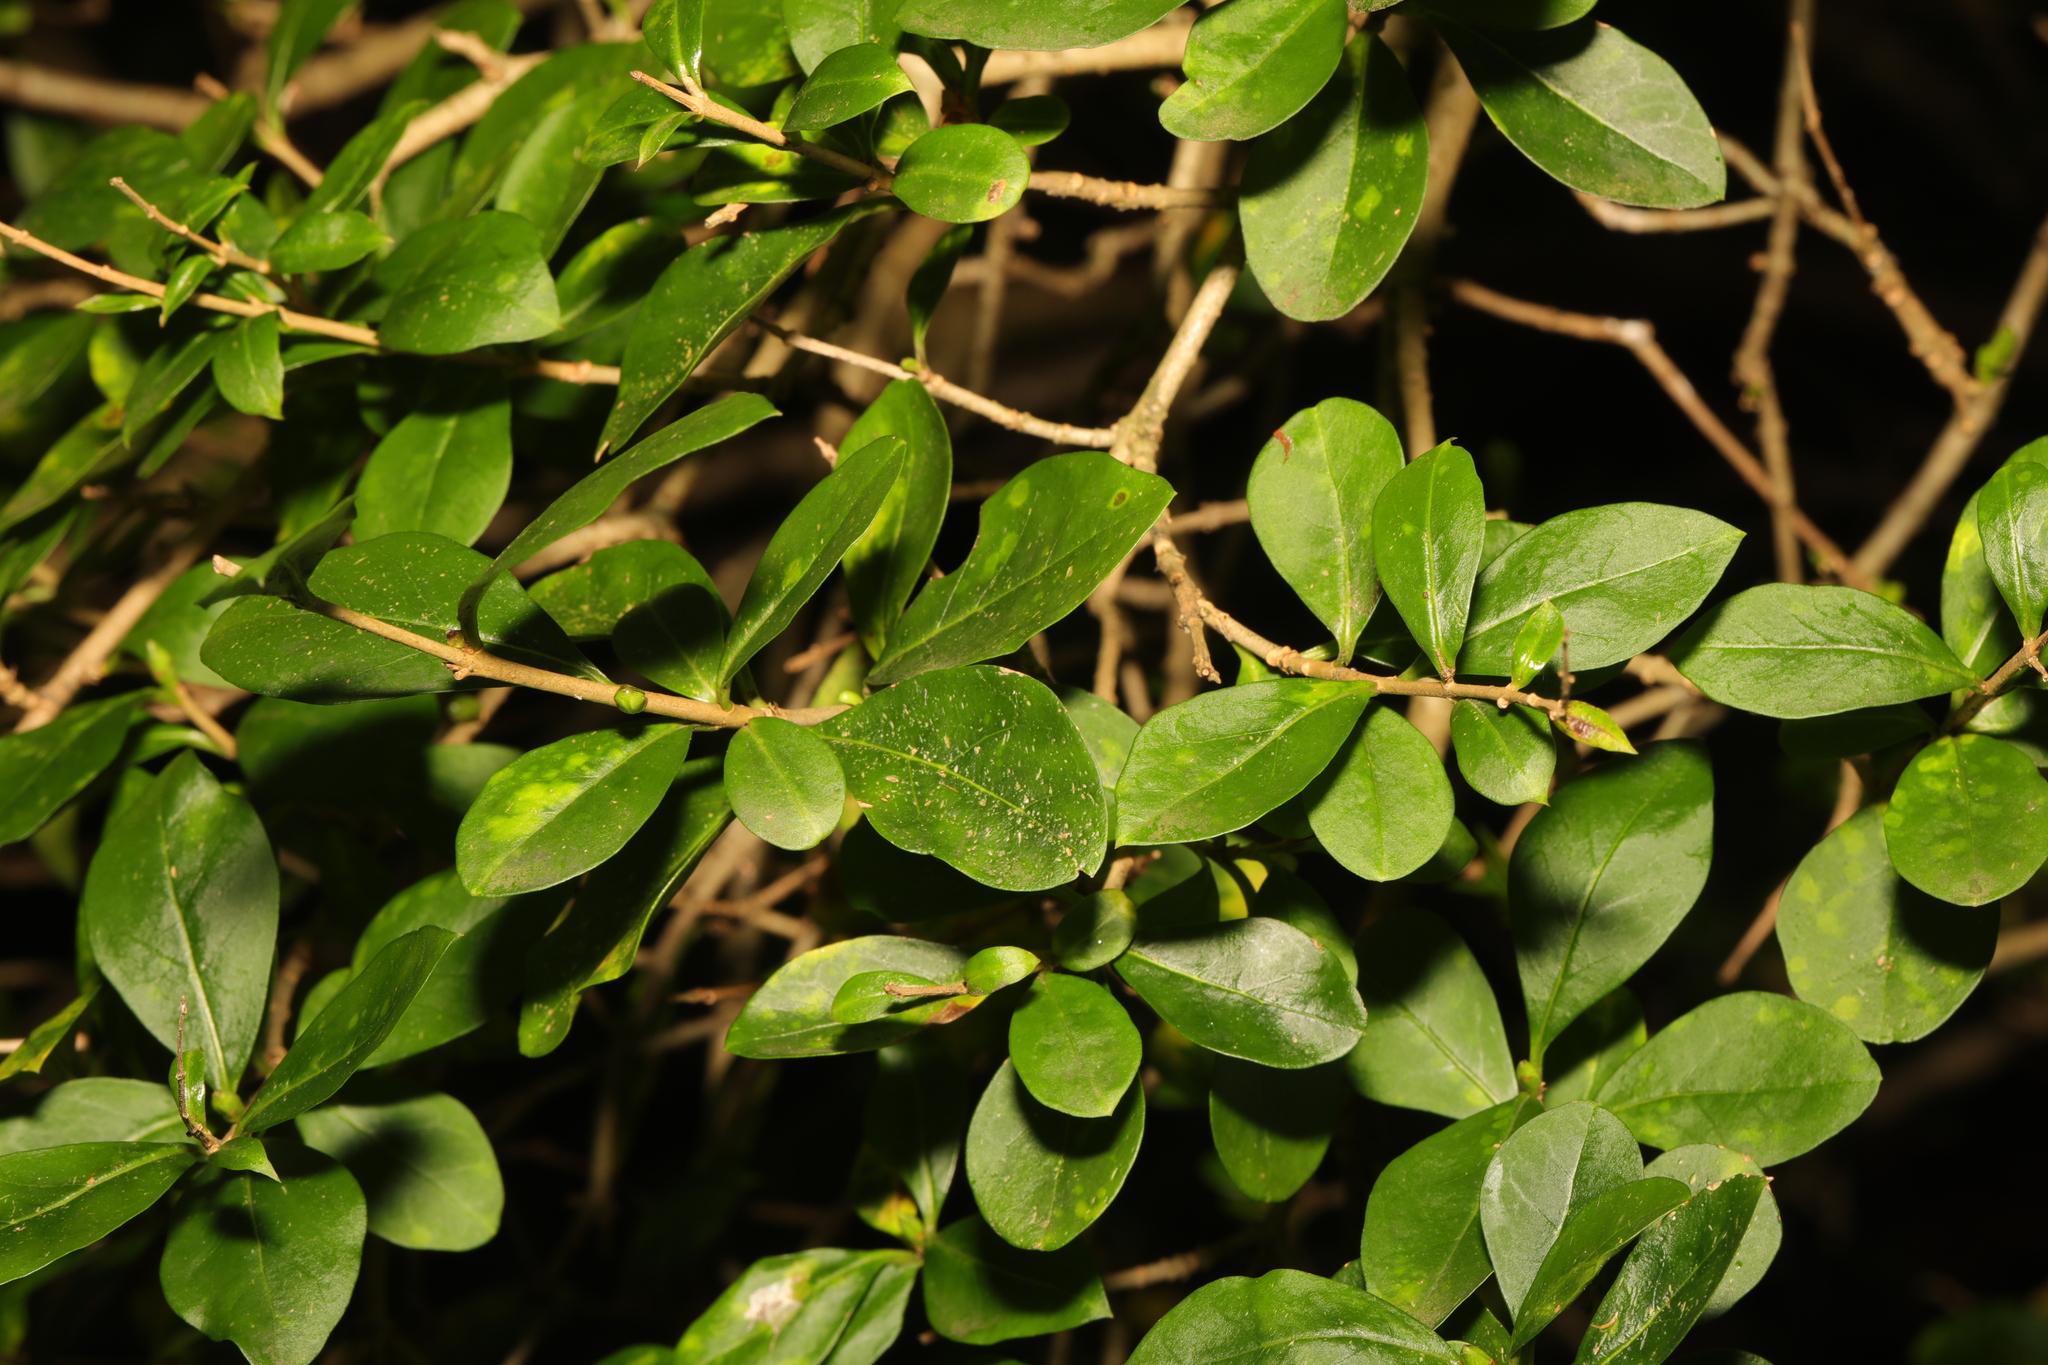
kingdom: Plantae
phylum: Tracheophyta
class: Magnoliopsida
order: Lamiales
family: Oleaceae
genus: Ligustrum
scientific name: Ligustrum ovalifolium
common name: California privet
